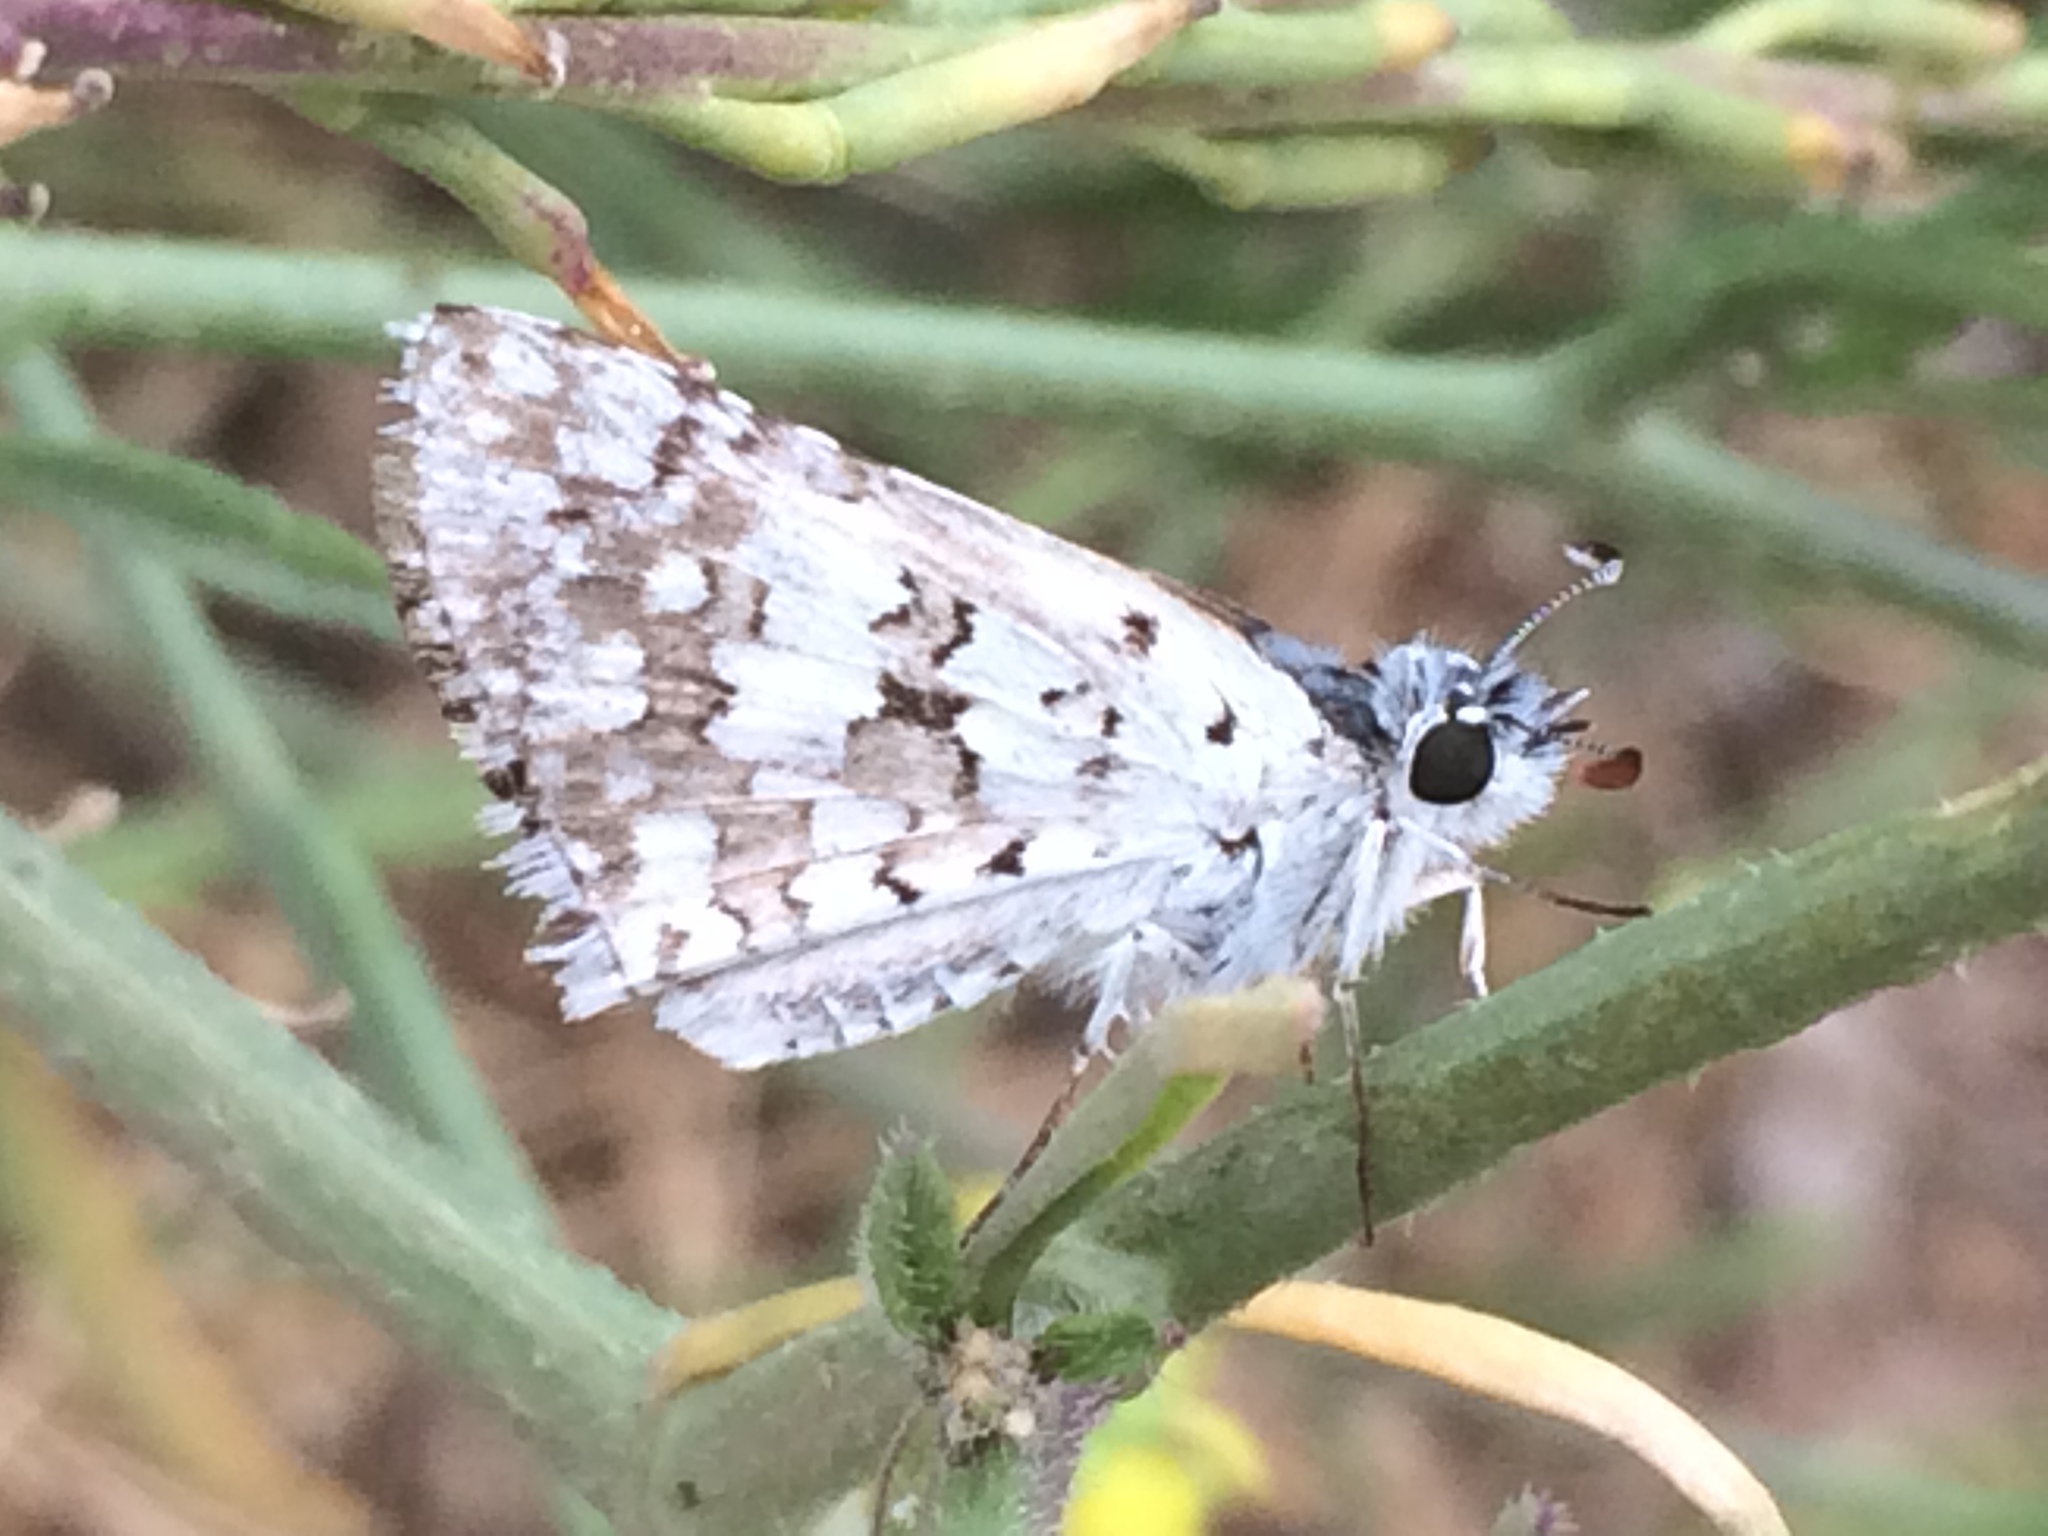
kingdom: Animalia
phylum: Arthropoda
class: Insecta
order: Lepidoptera
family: Hesperiidae
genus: Burnsius
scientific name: Burnsius communis
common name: Common checkered-skipper
